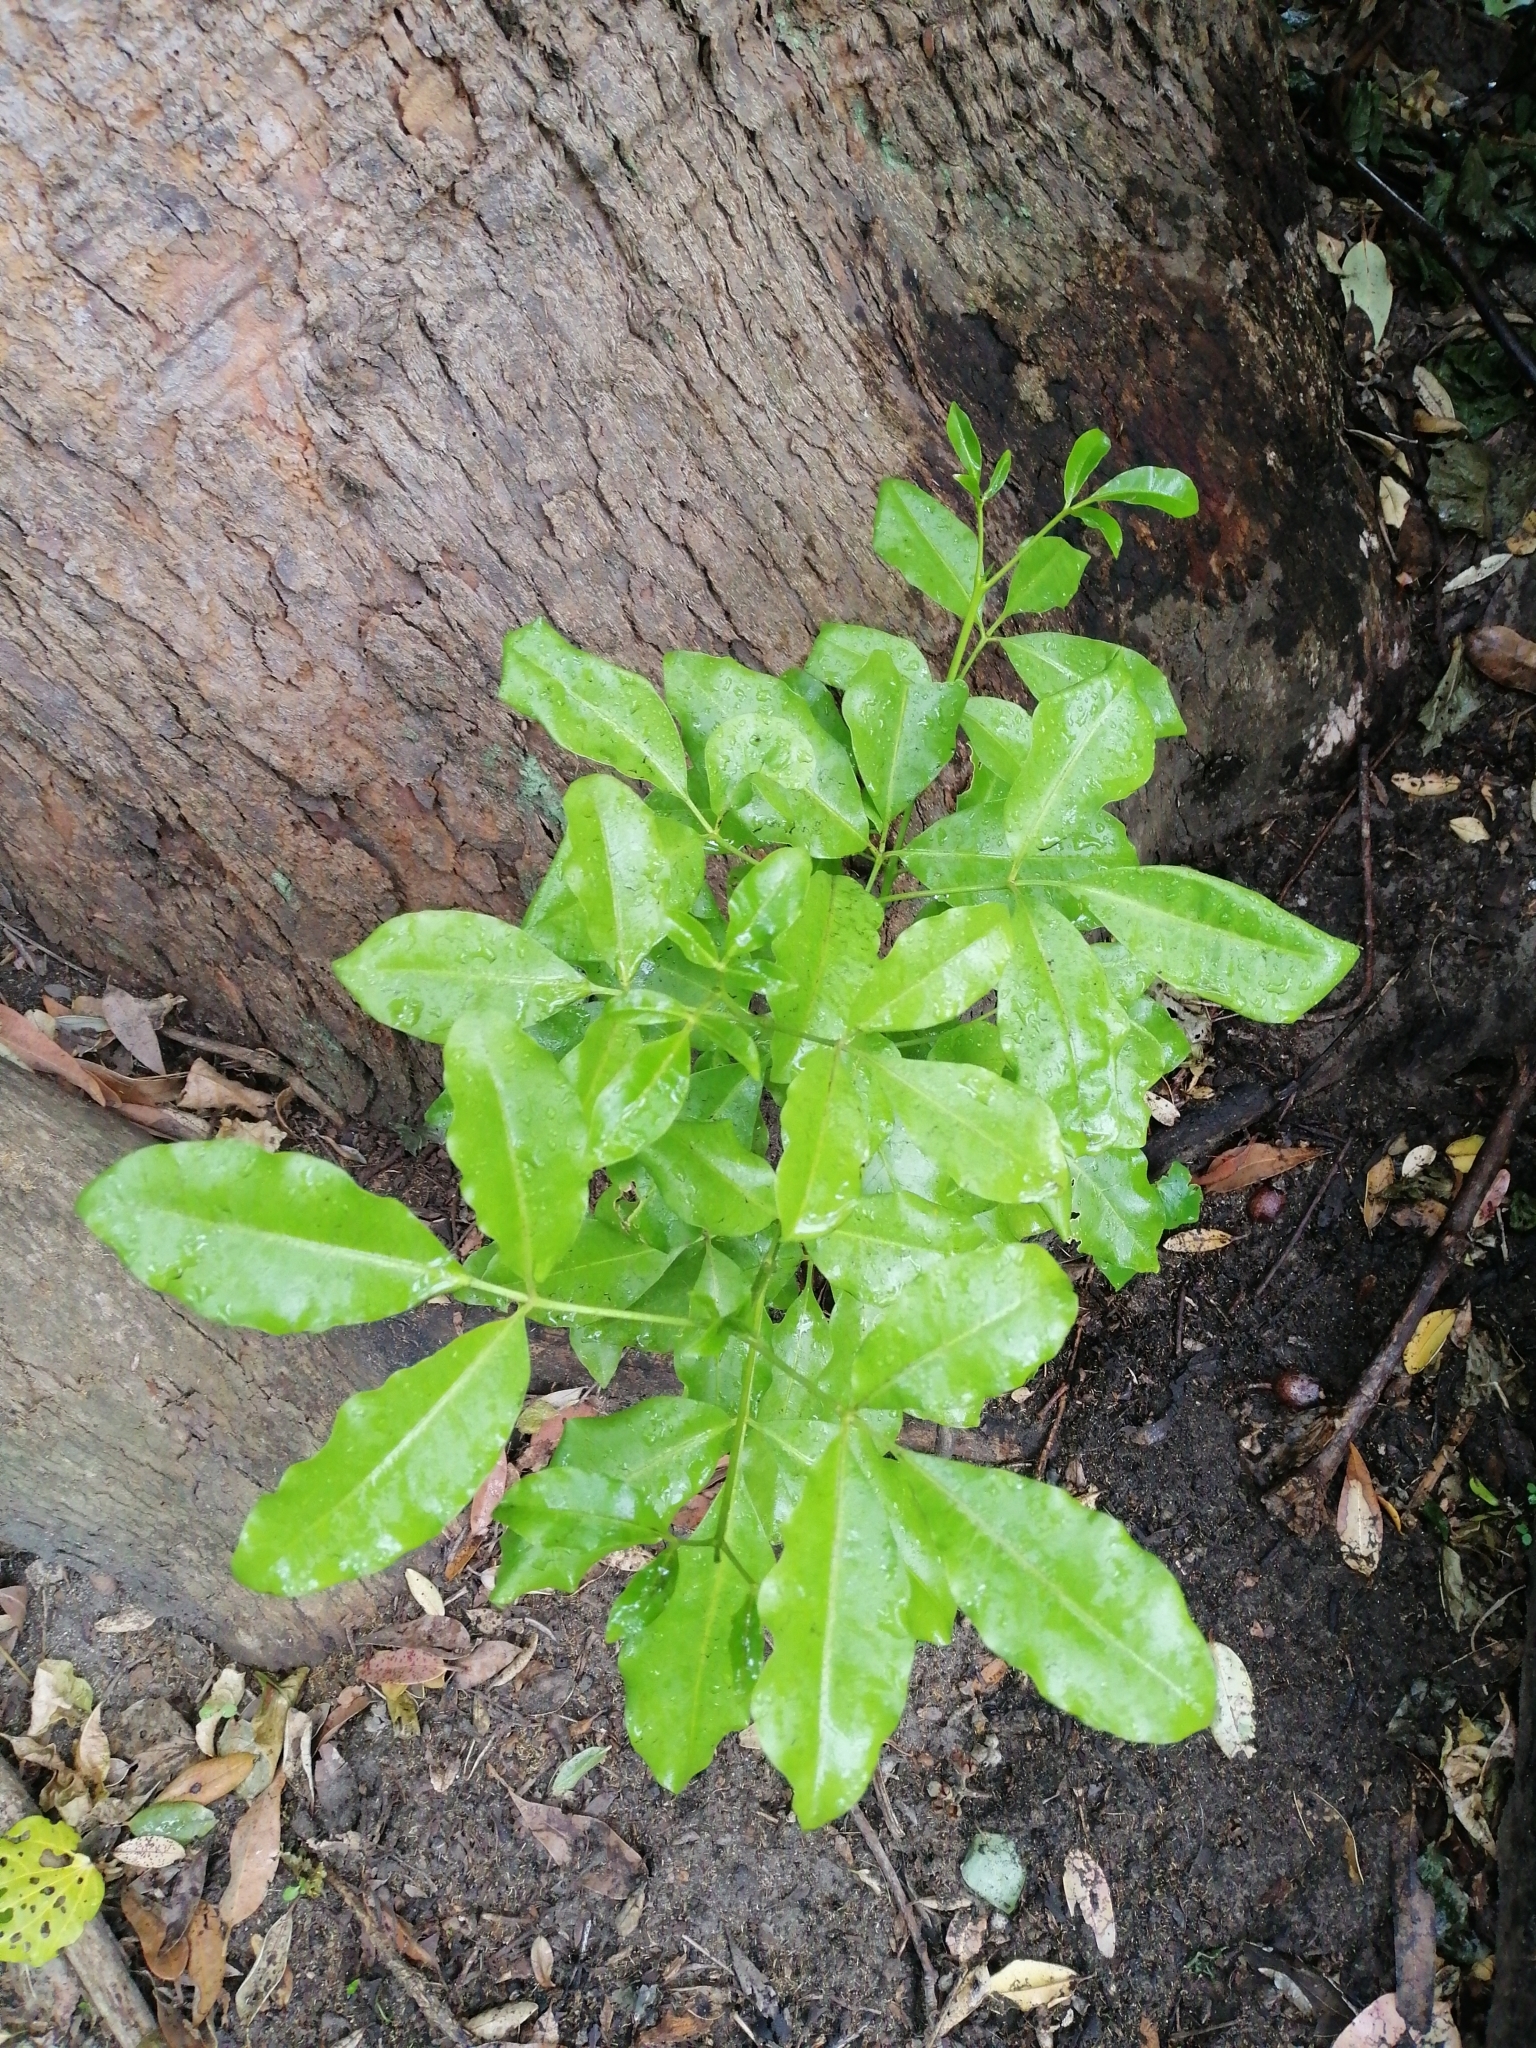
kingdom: Plantae
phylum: Tracheophyta
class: Magnoliopsida
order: Sapindales
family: Rutaceae
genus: Melicope
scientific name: Melicope ternata
